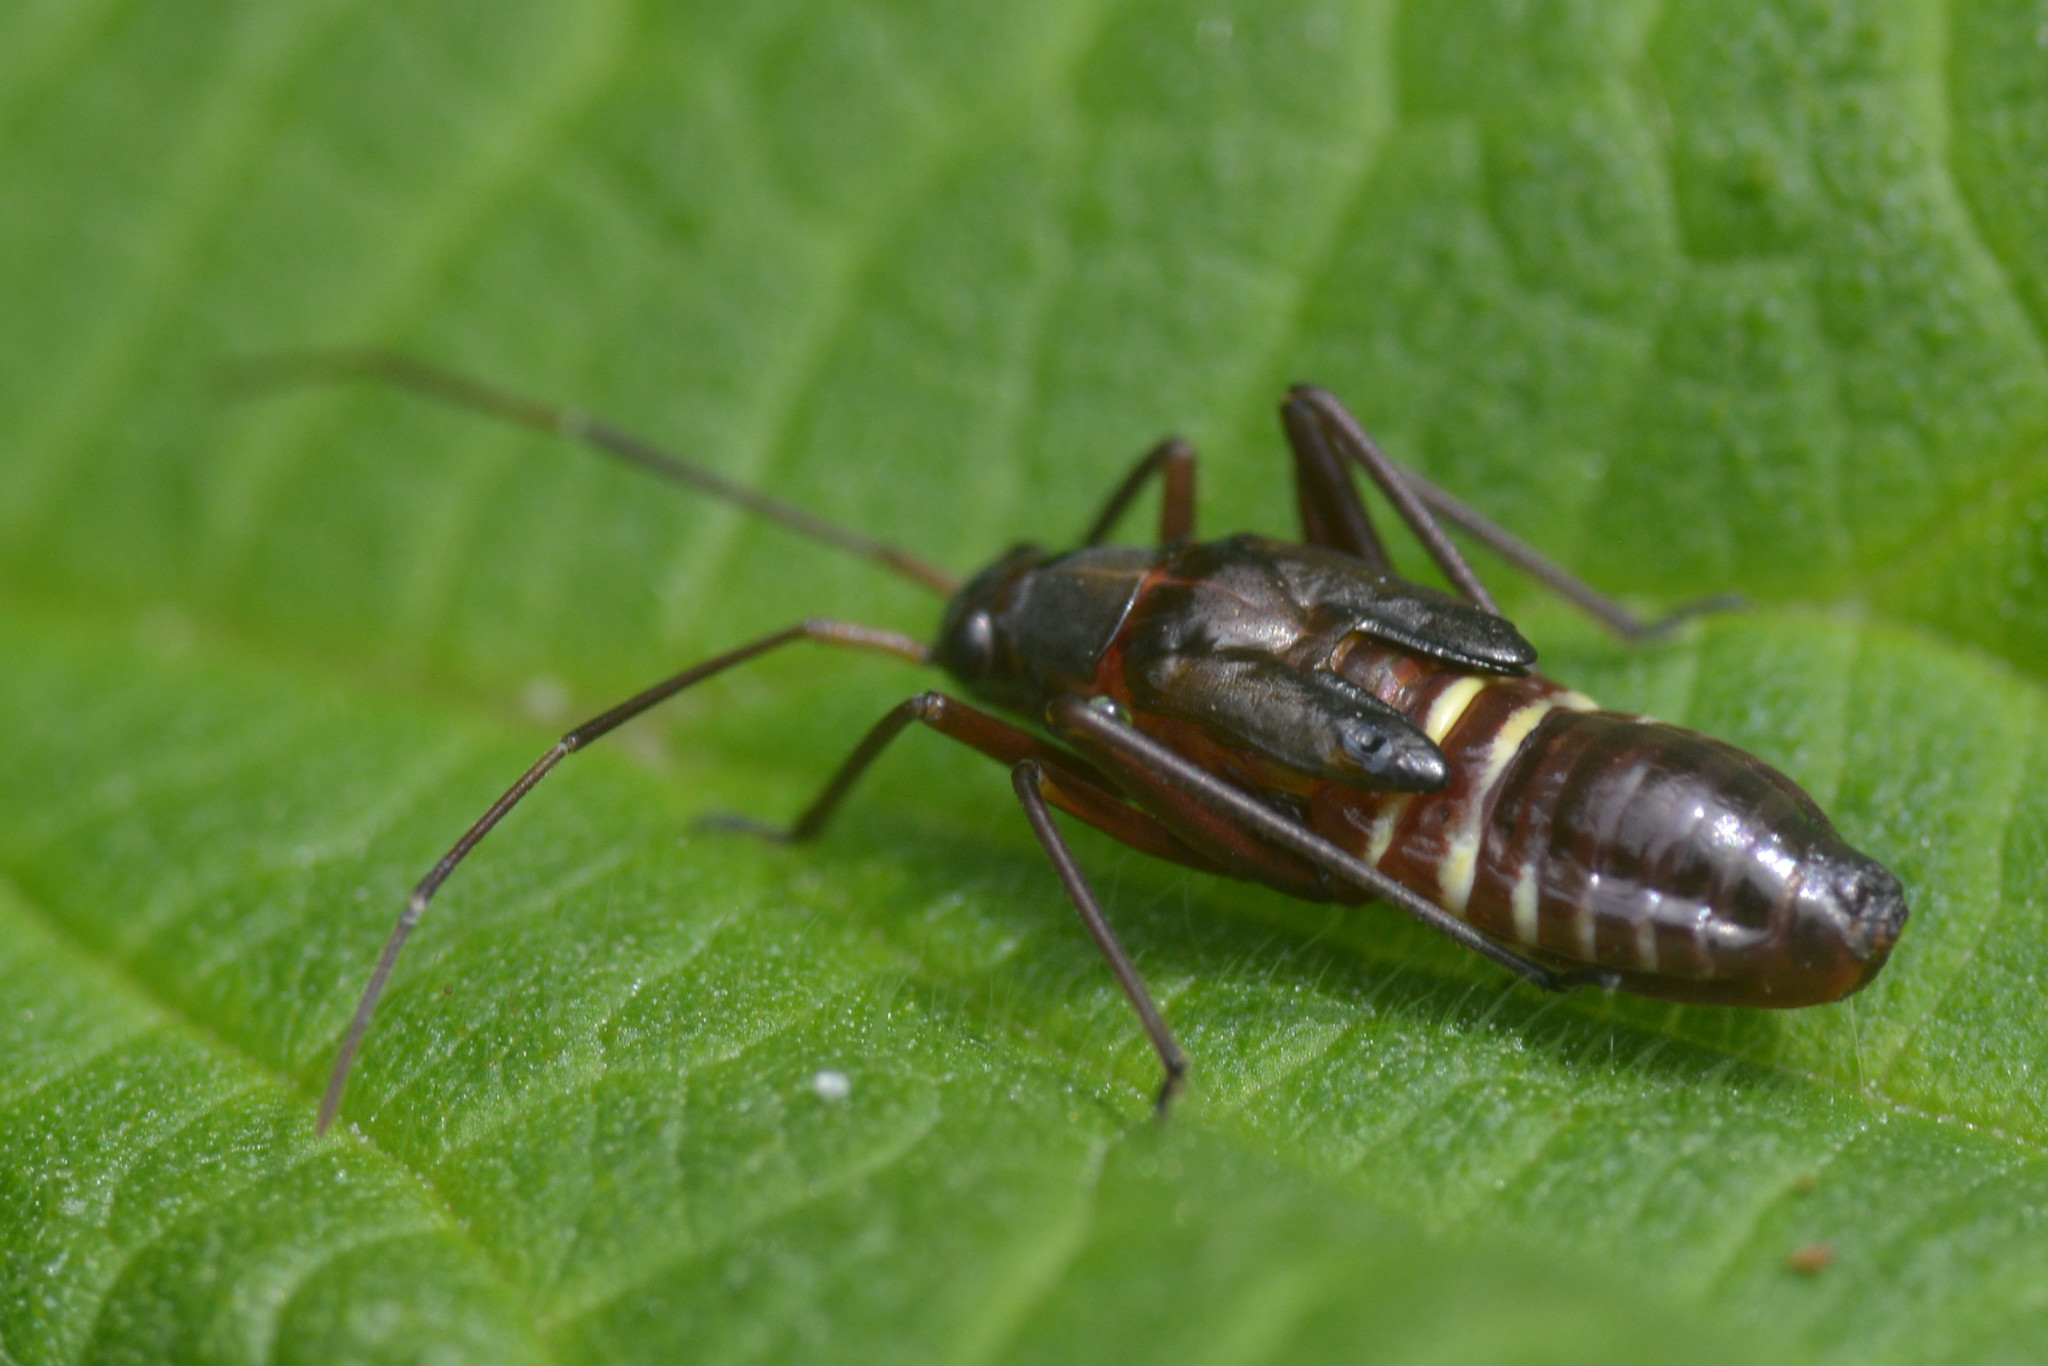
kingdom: Animalia
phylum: Arthropoda
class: Insecta
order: Hemiptera
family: Miridae
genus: Miris
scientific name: Miris striatus
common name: Fine streaked bugkin
